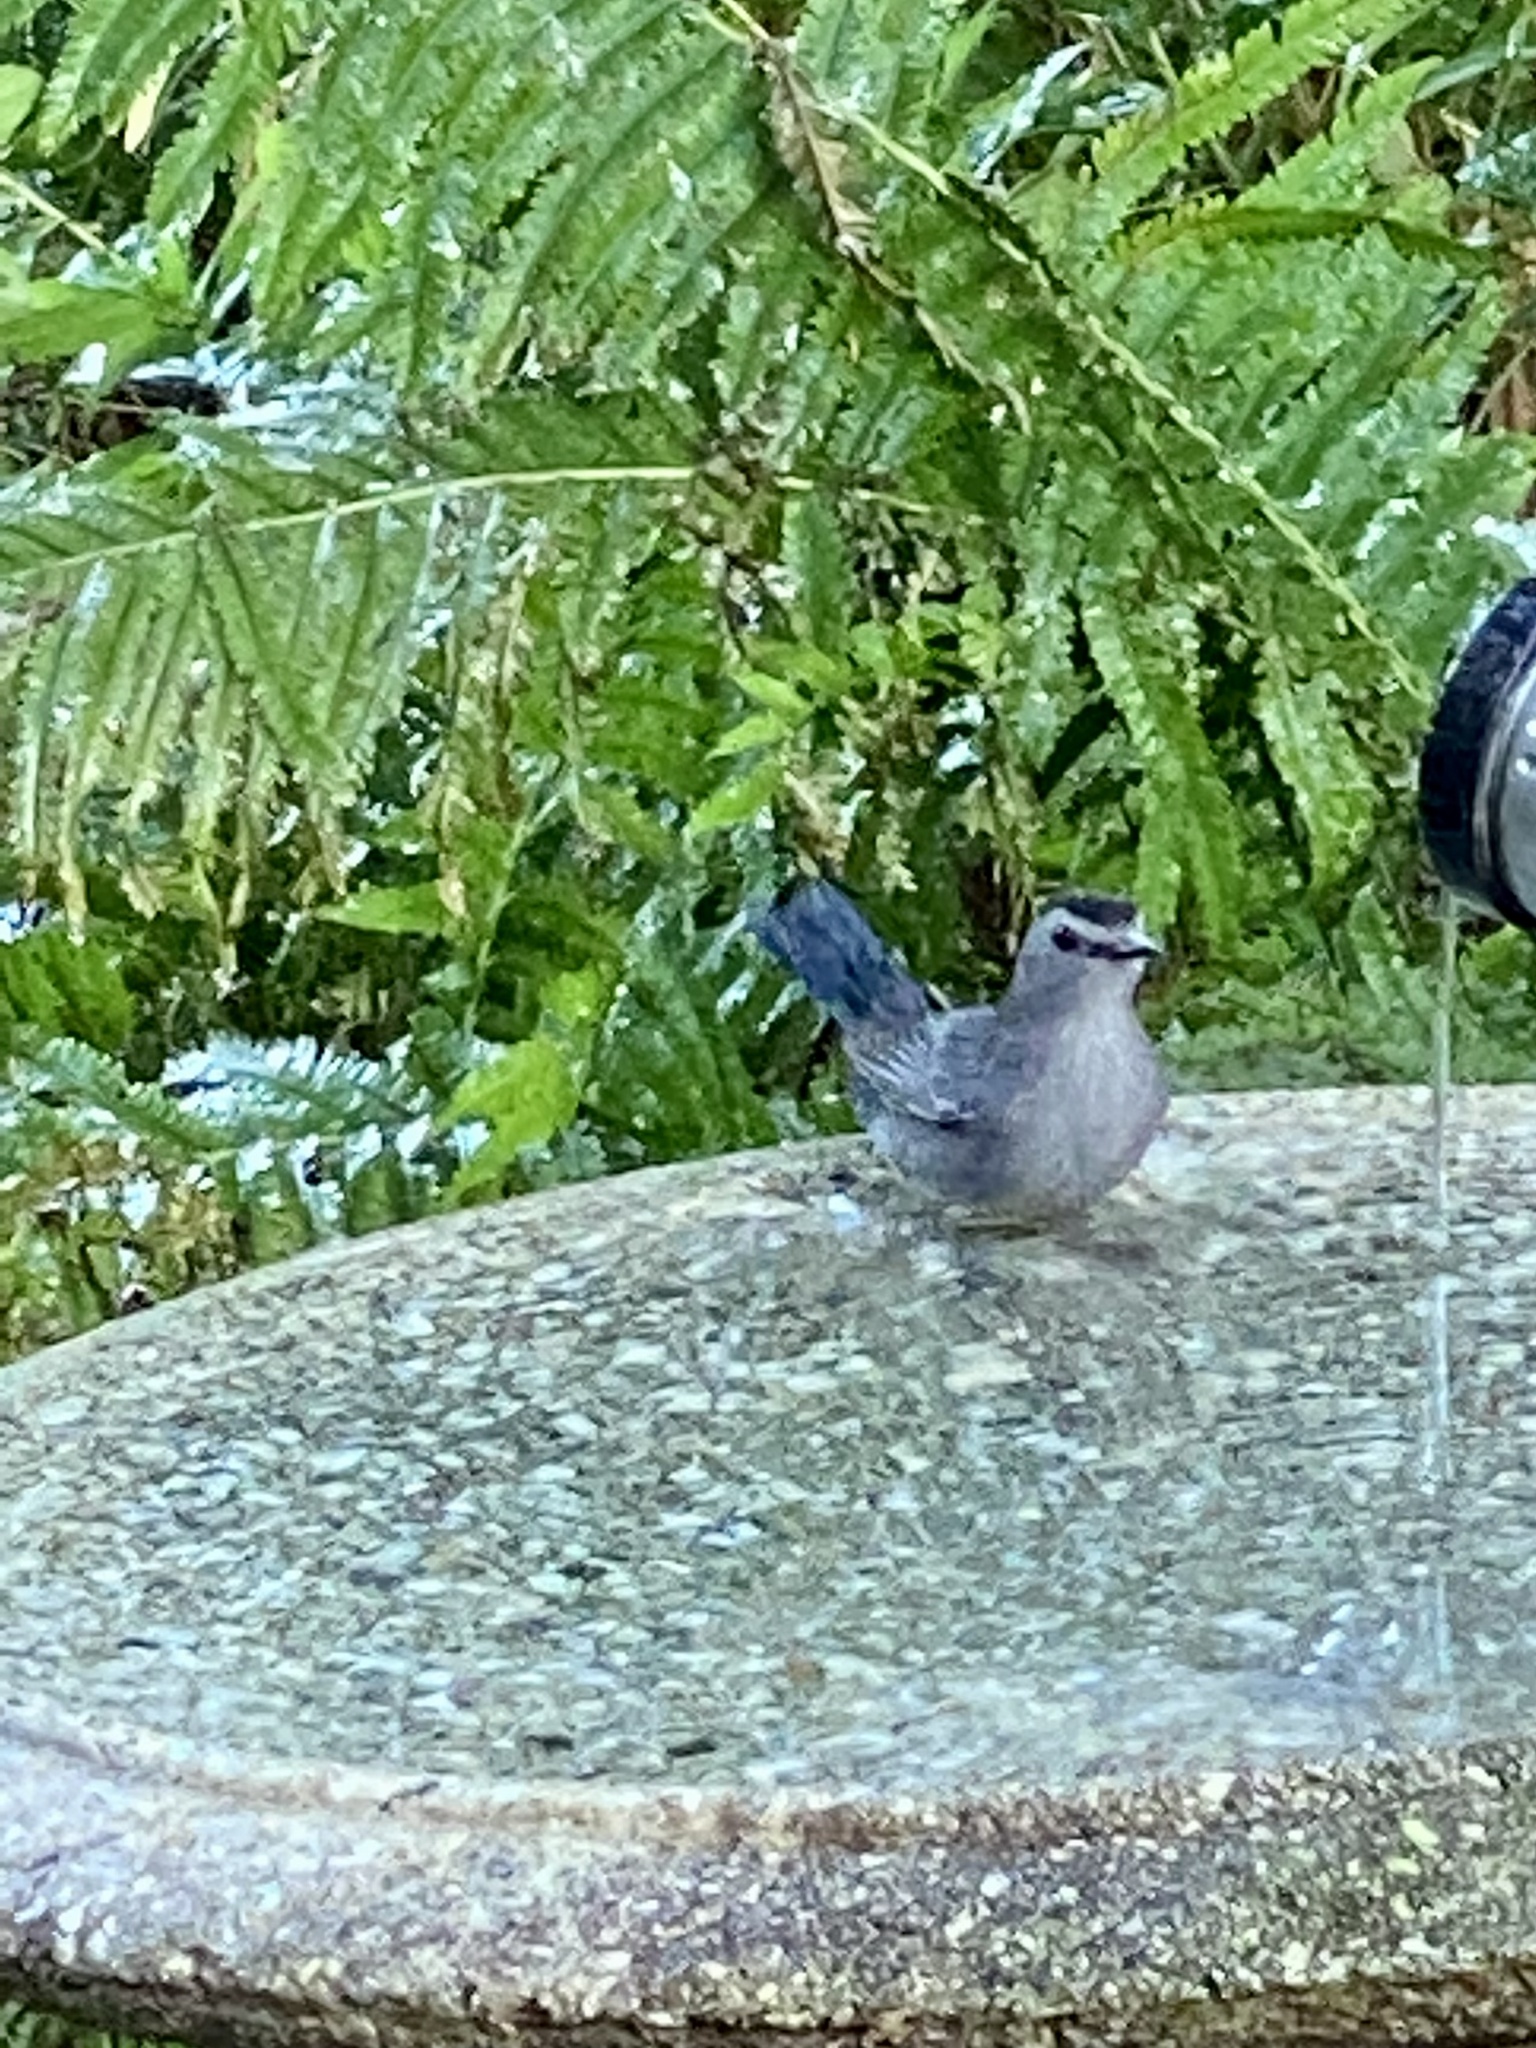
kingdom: Animalia
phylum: Chordata
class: Aves
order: Passeriformes
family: Mimidae
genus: Dumetella
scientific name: Dumetella carolinensis
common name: Gray catbird
